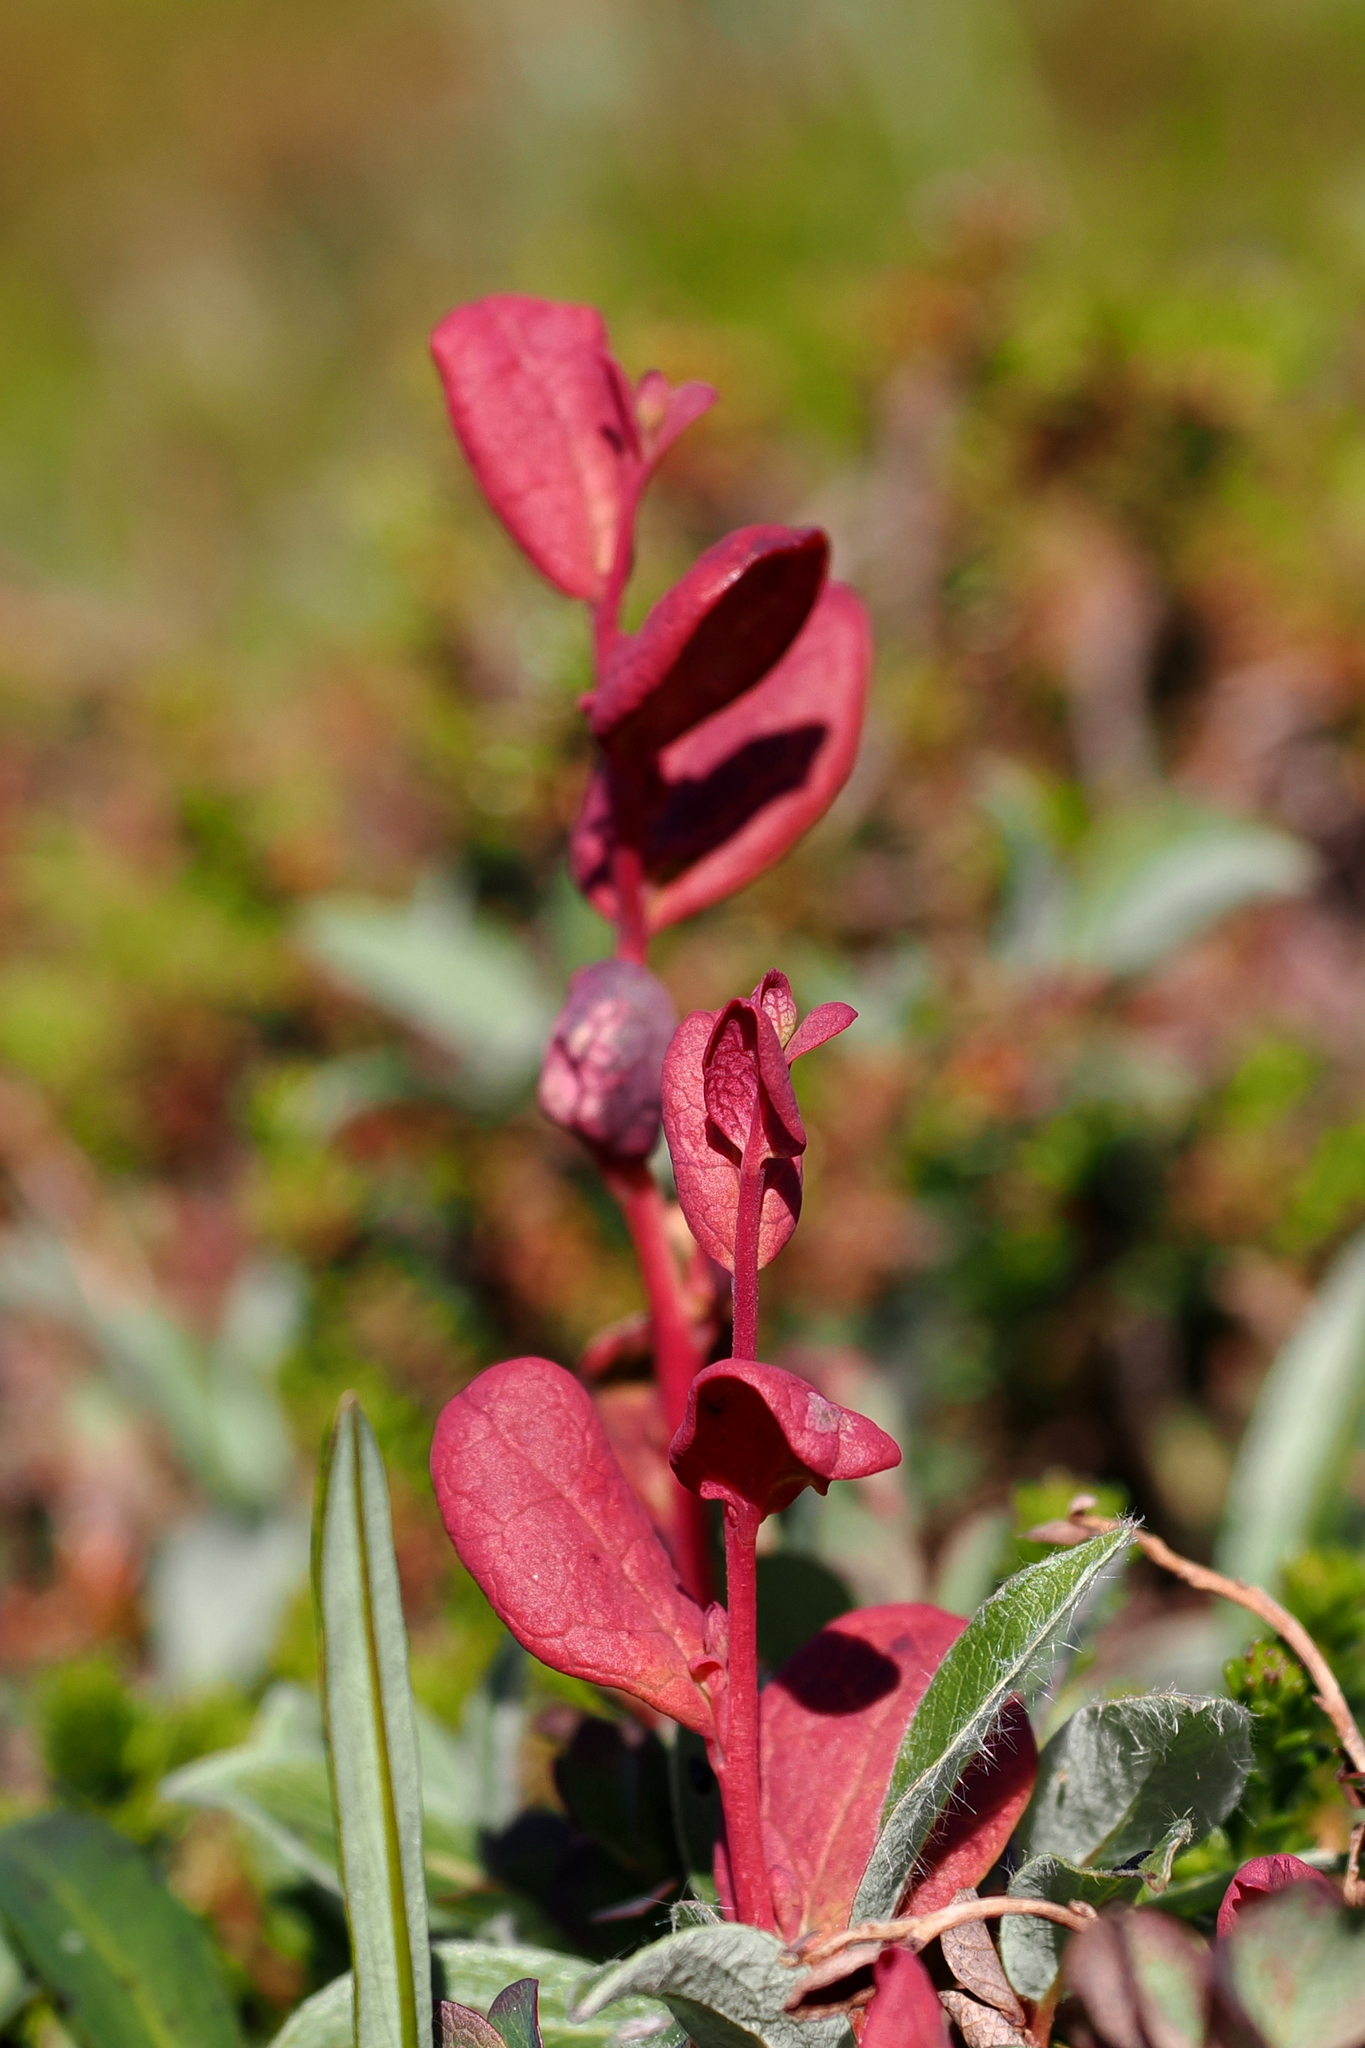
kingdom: Plantae
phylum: Tracheophyta
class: Magnoliopsida
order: Ericales
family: Ericaceae
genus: Vaccinium
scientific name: Vaccinium uliginosum
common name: Bog bilberry
